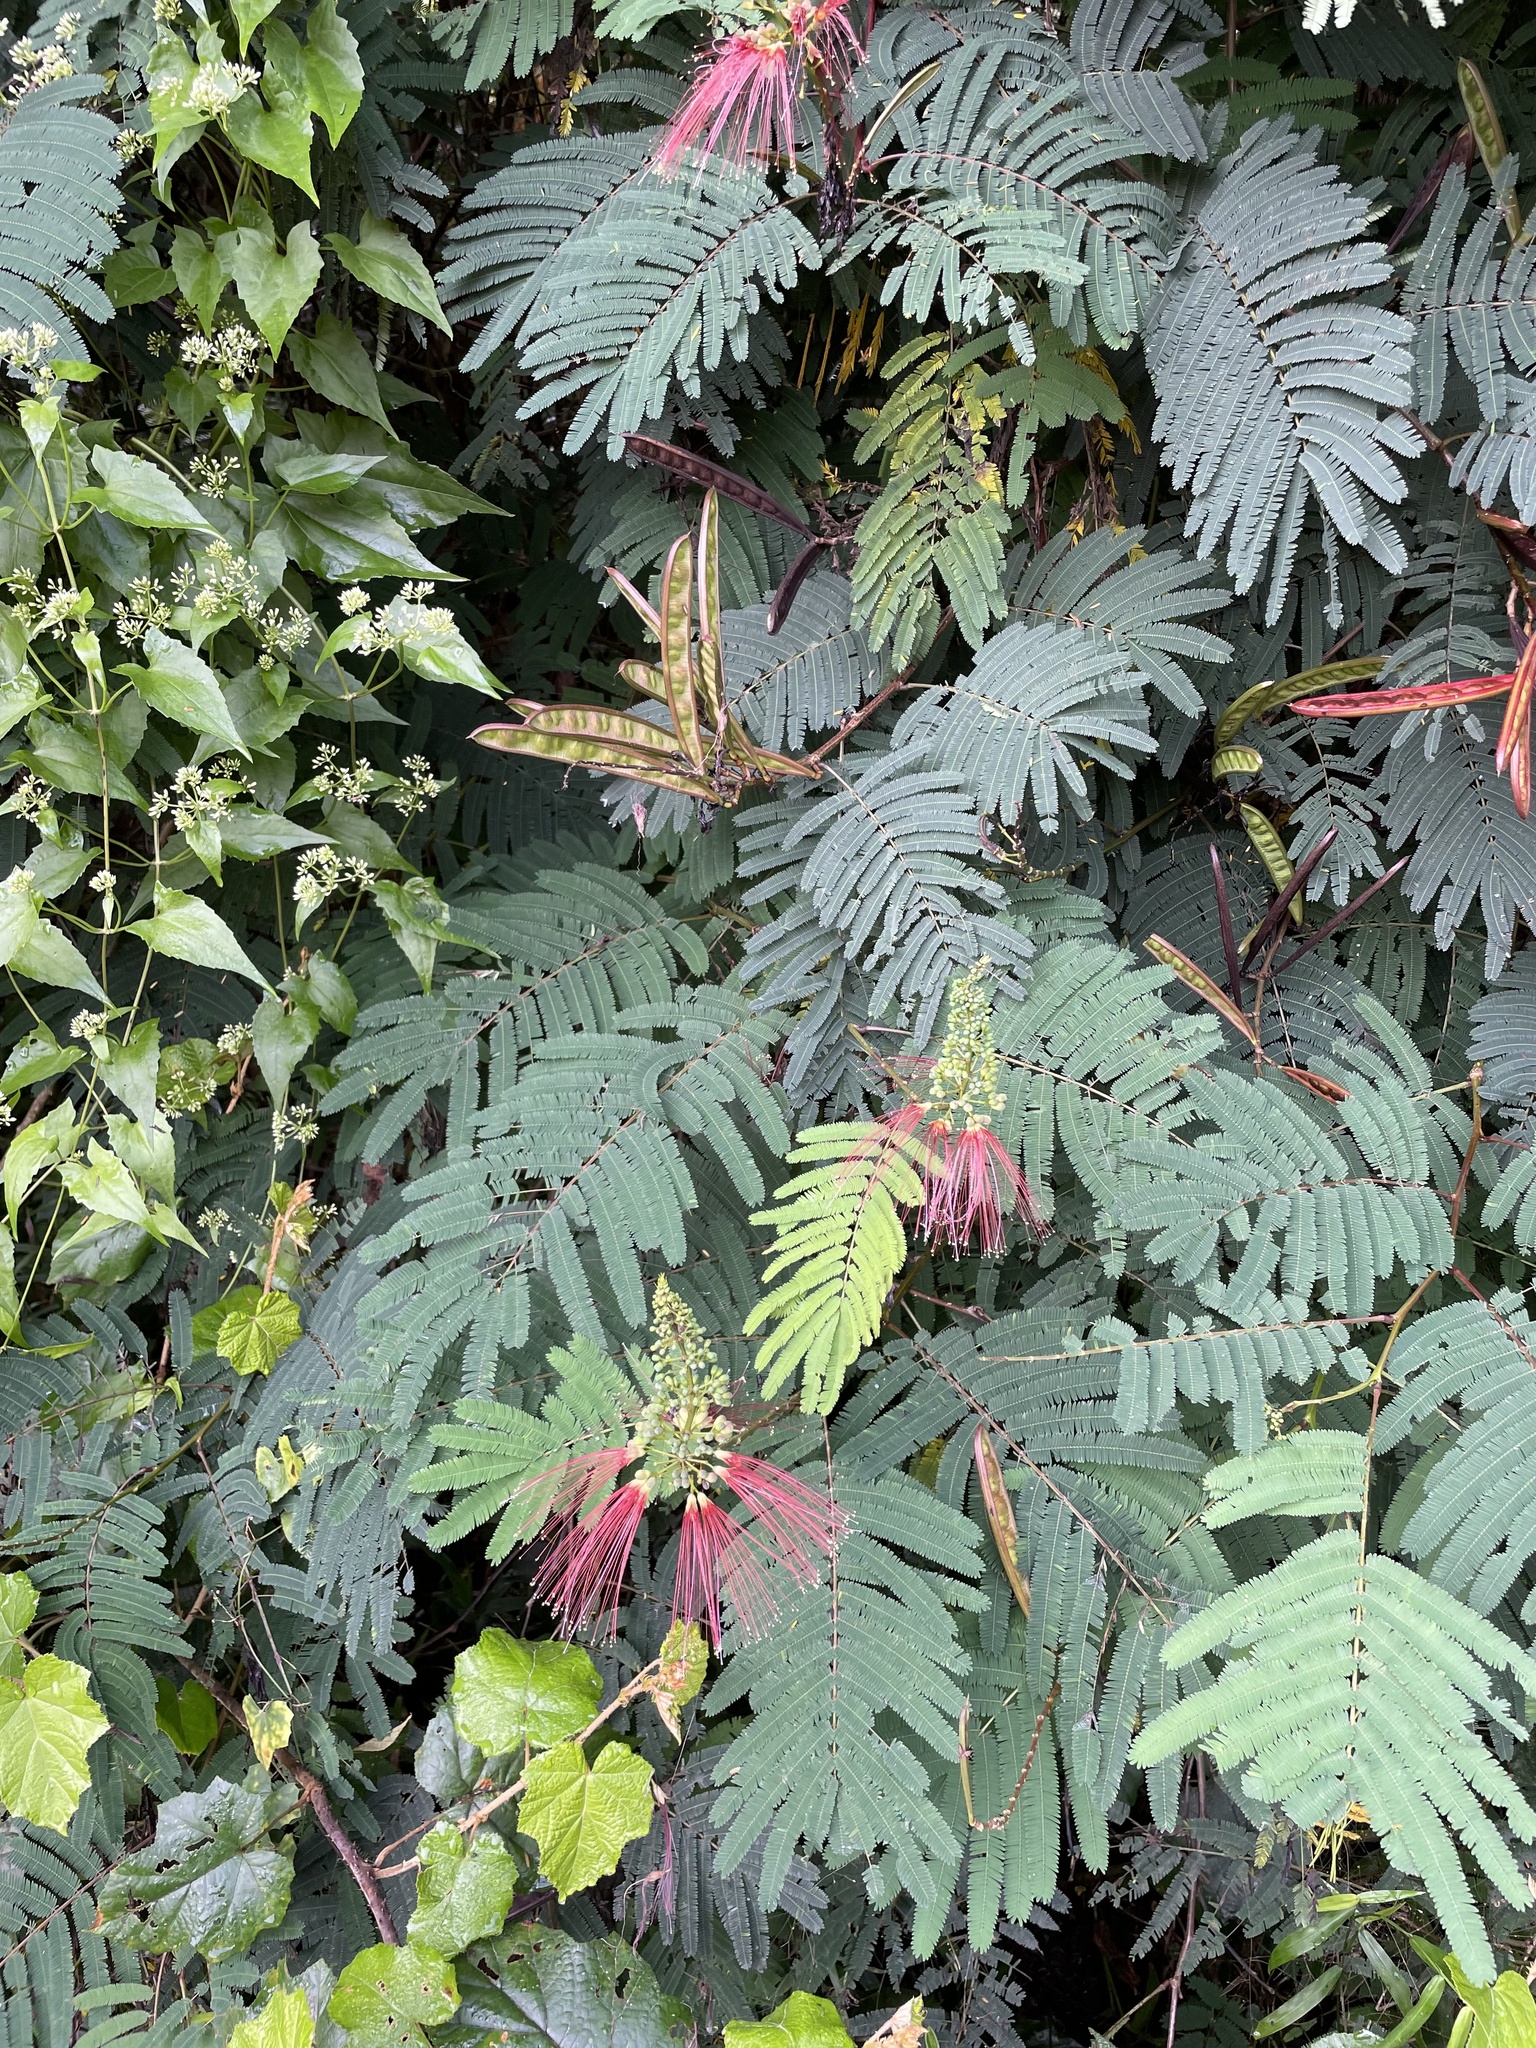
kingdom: Plantae
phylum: Tracheophyta
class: Magnoliopsida
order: Fabales
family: Fabaceae
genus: Calliandra
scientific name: Calliandra houstoniana
